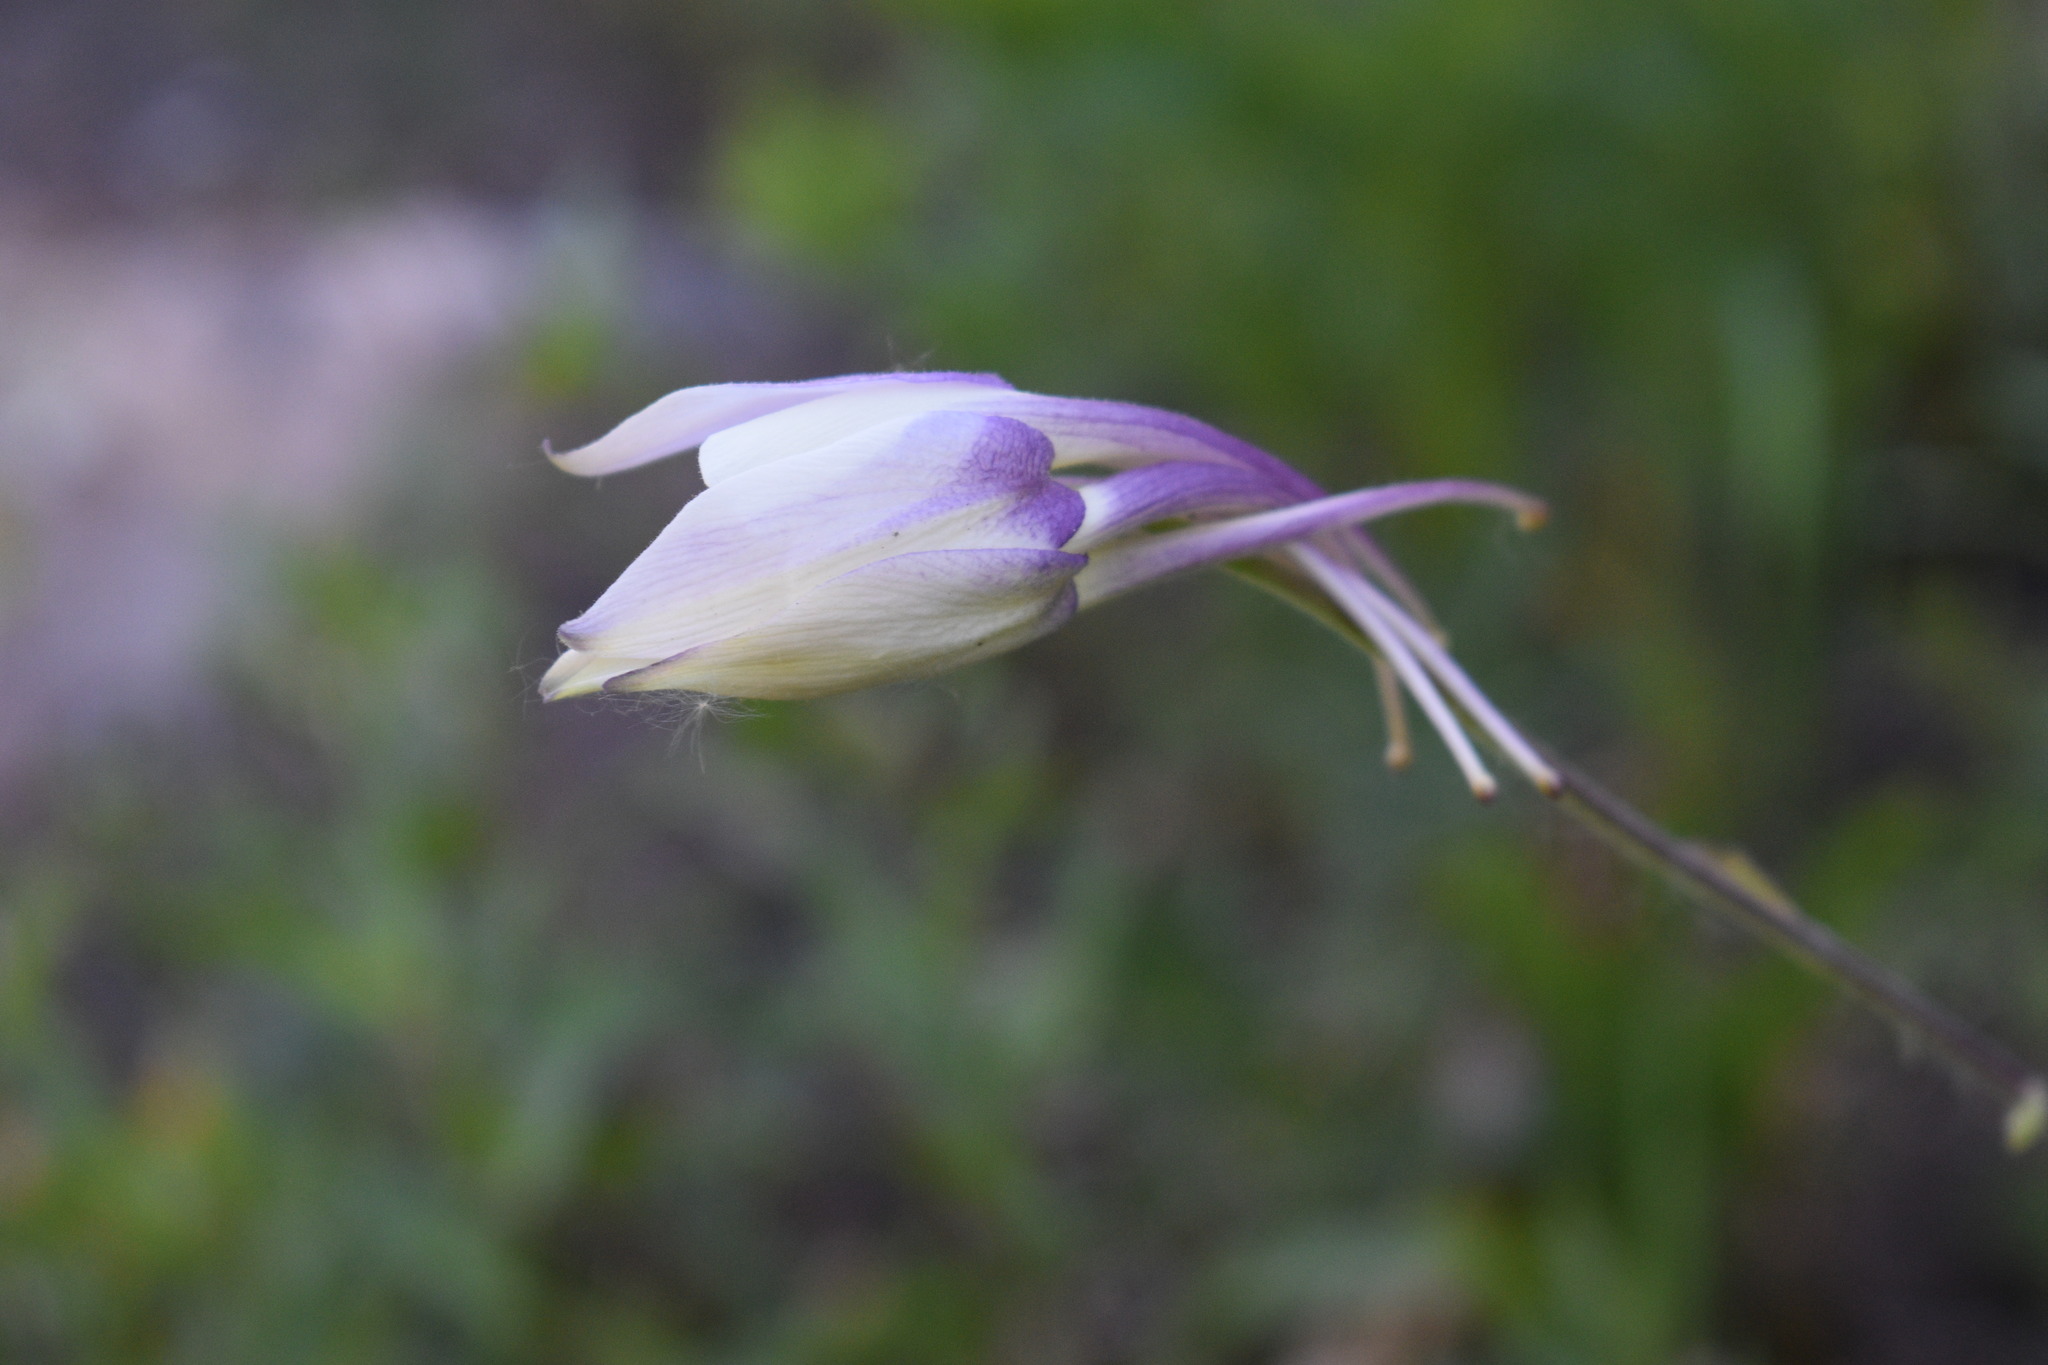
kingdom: Plantae
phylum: Tracheophyta
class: Magnoliopsida
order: Ranunculales
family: Ranunculaceae
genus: Aquilegia
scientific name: Aquilegia coerulea
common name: Rocky mountain columbine
